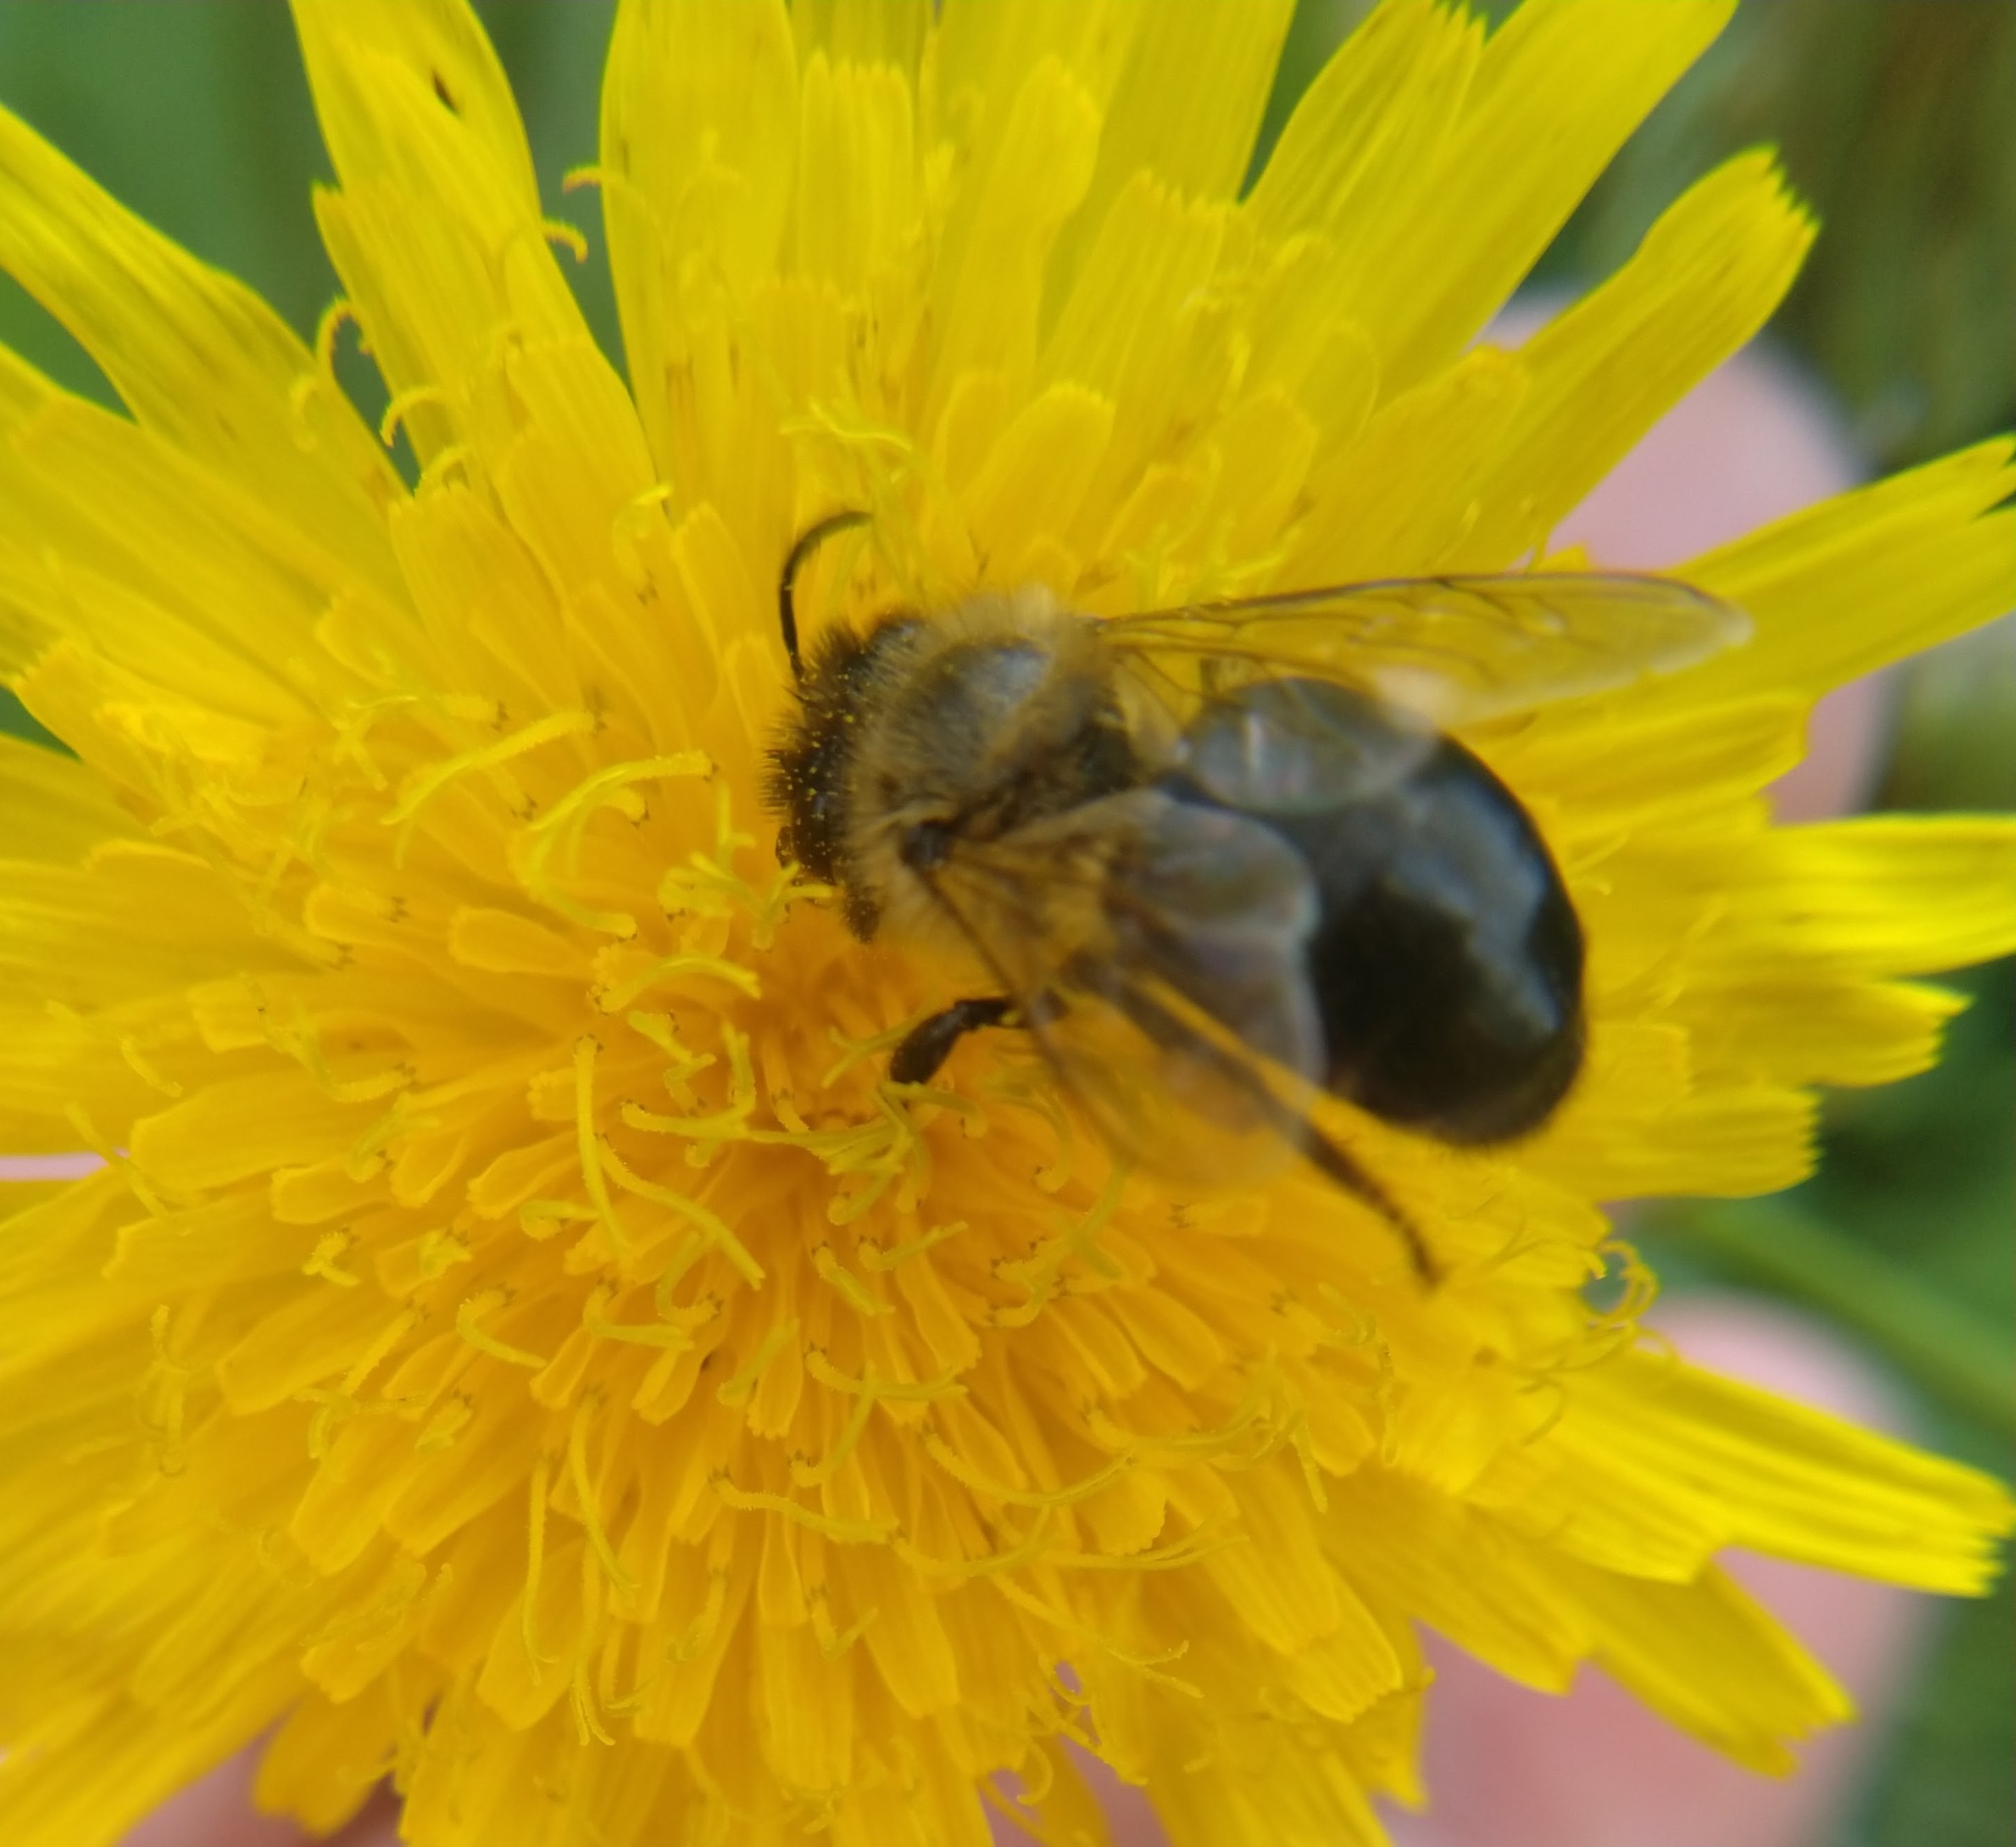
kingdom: Animalia
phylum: Arthropoda
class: Insecta
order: Hymenoptera
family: Apidae
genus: Apis
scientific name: Apis mellifera
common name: Honey bee
